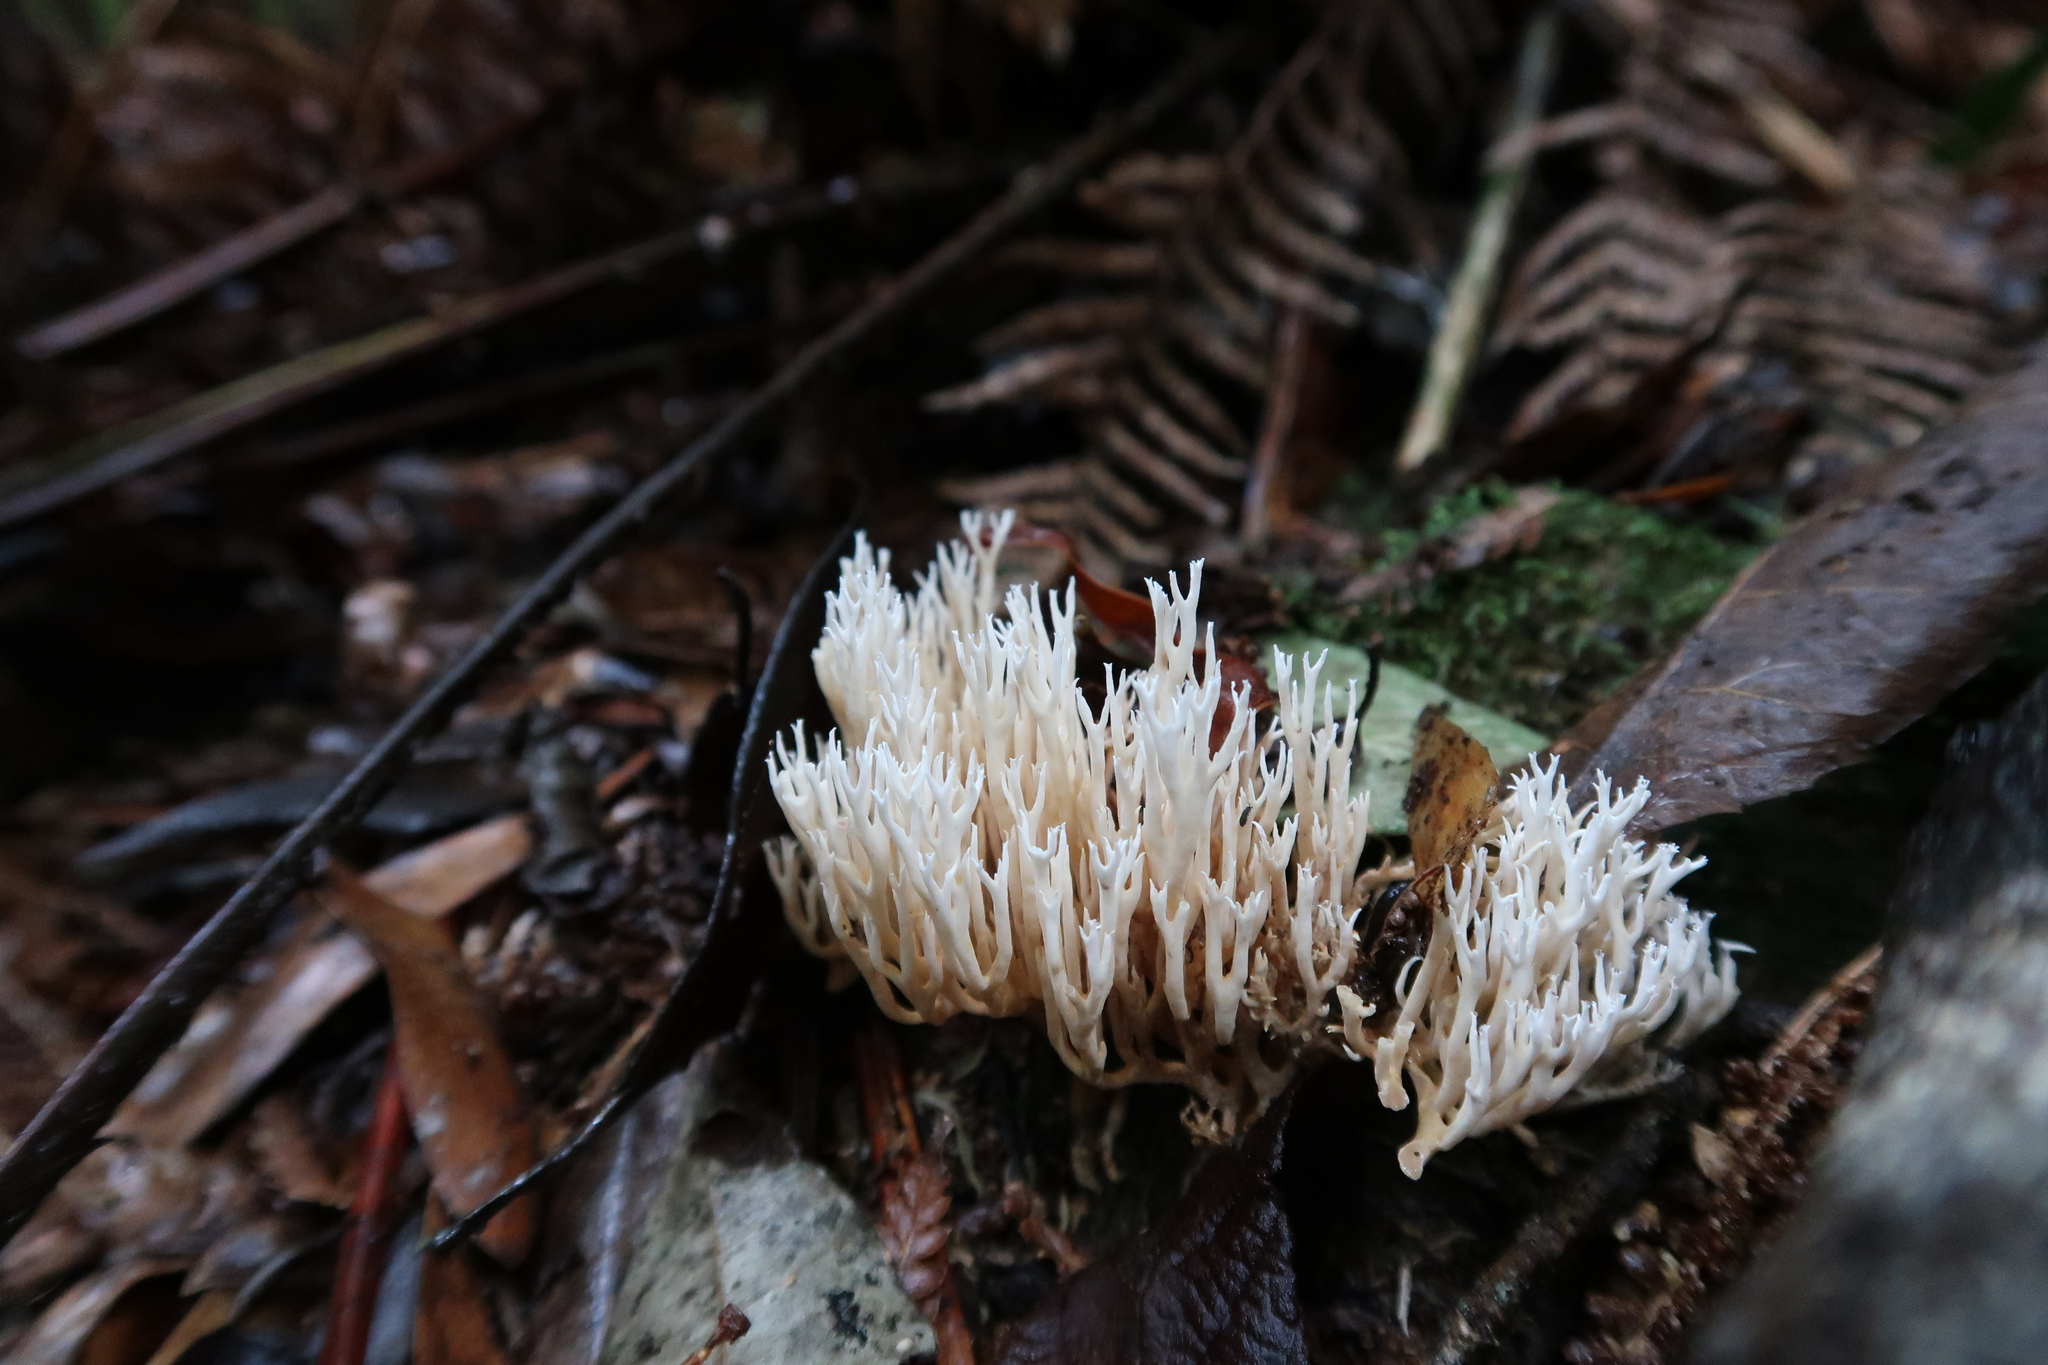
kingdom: Fungi
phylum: Basidiomycota
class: Agaricomycetes
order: Gomphales
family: Gomphaceae
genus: Ramaria
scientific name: Ramaria filicicola
